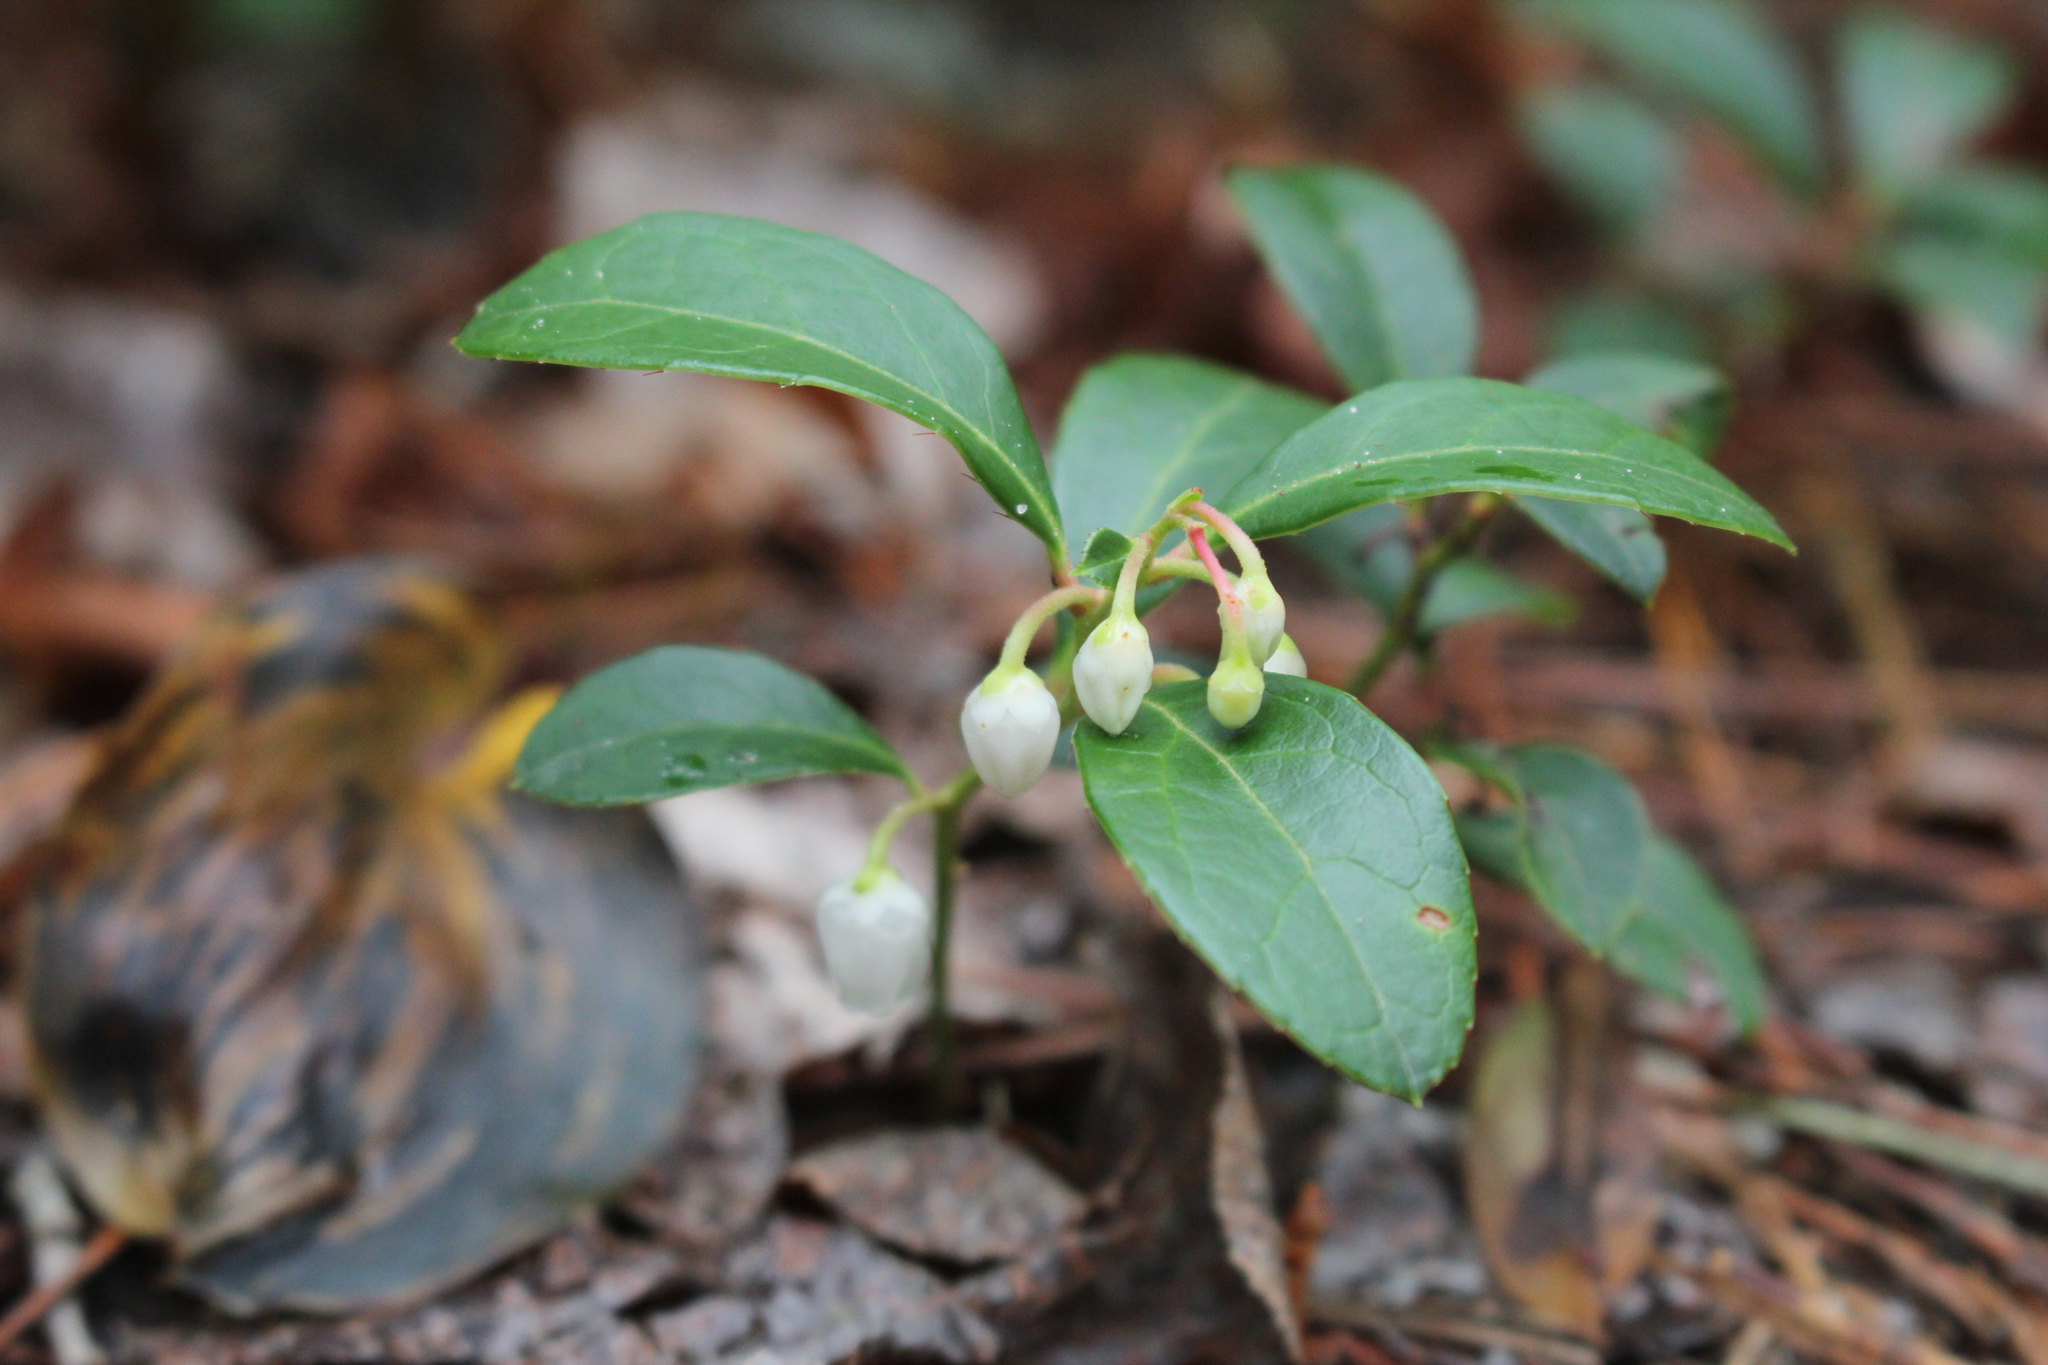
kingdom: Plantae
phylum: Tracheophyta
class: Magnoliopsida
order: Ericales
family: Ericaceae
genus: Gaultheria
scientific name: Gaultheria procumbens
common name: Checkerberry
